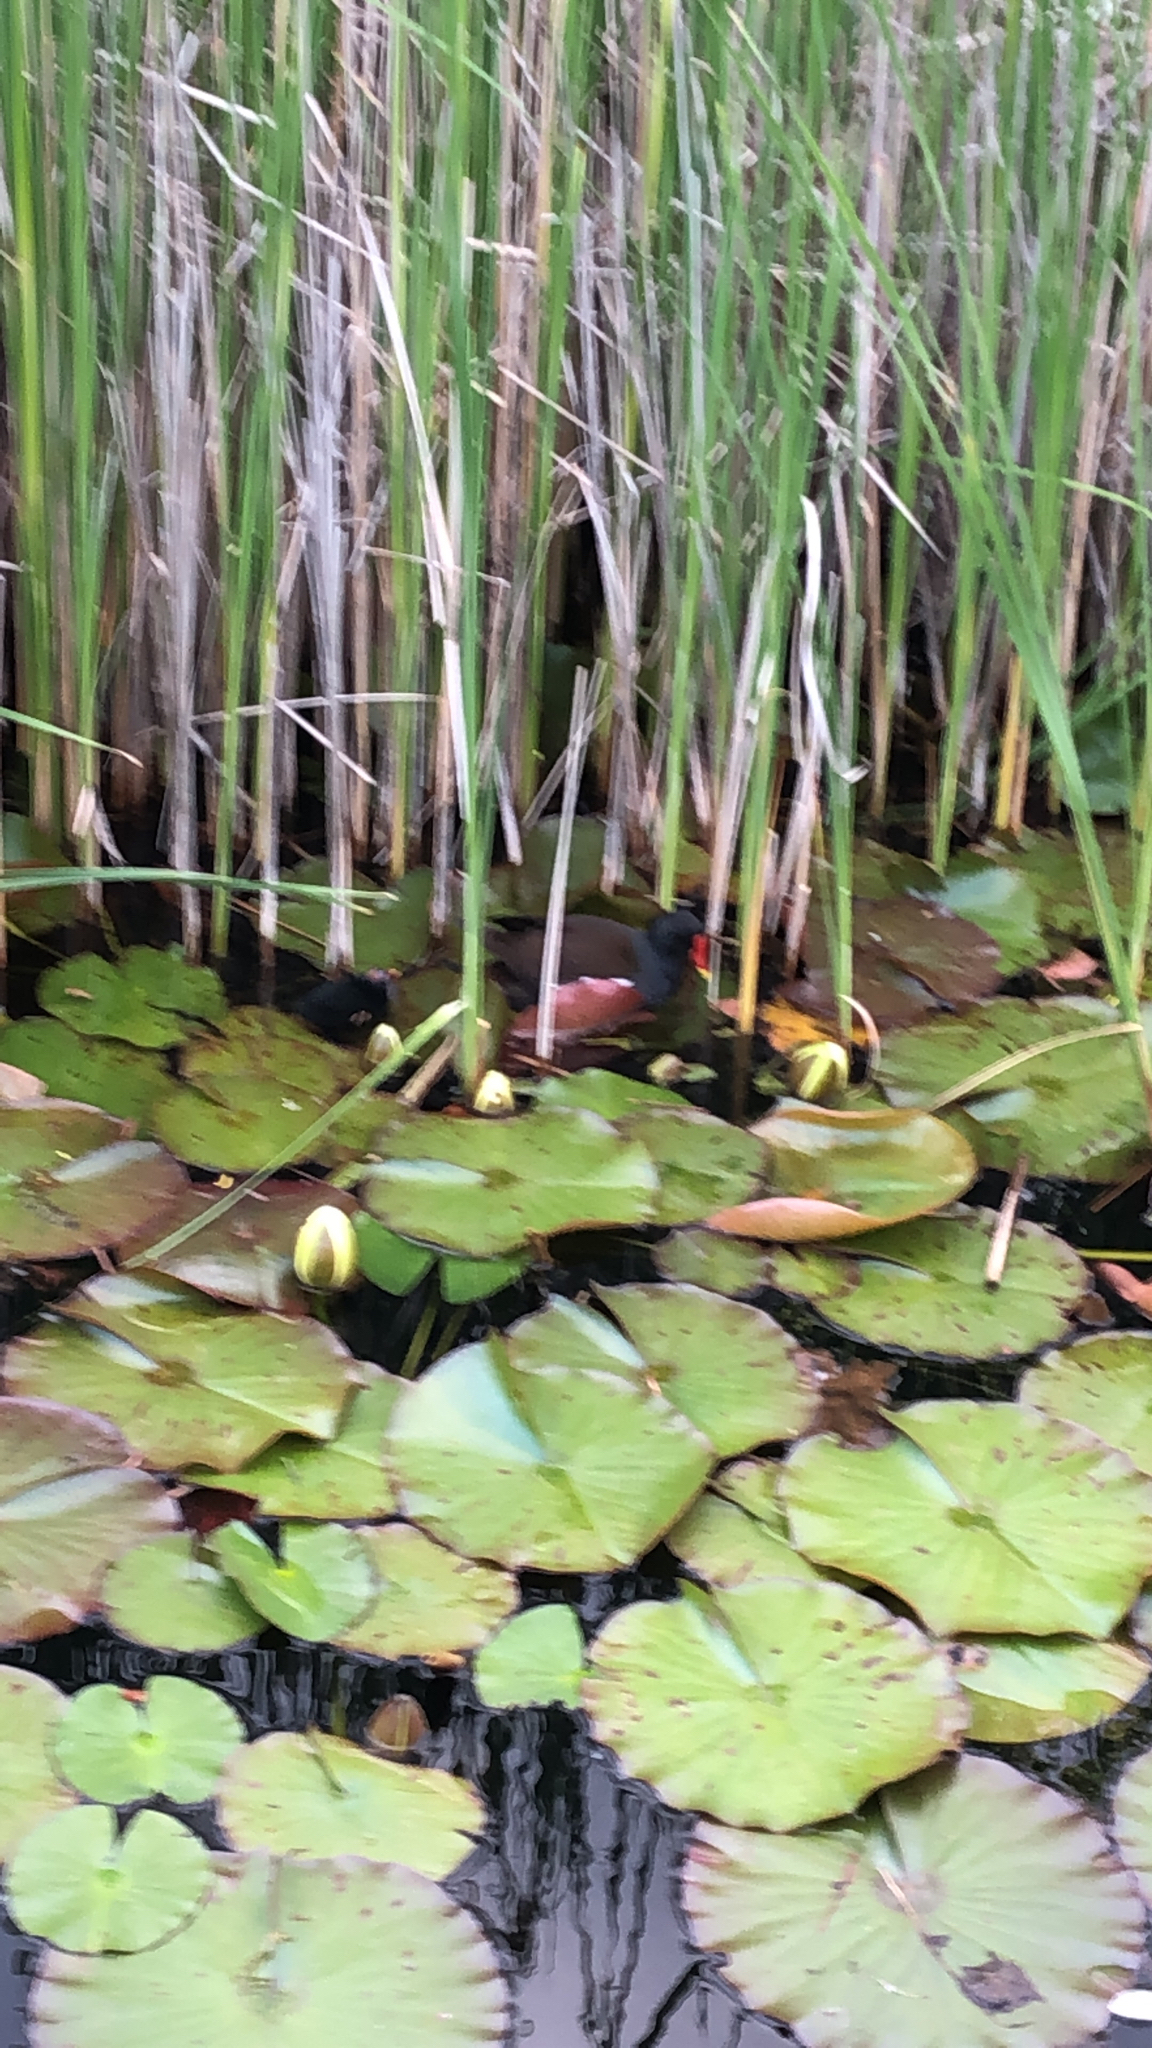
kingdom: Animalia
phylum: Chordata
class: Aves
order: Gruiformes
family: Rallidae
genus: Gallinula
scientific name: Gallinula chloropus
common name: Common moorhen
